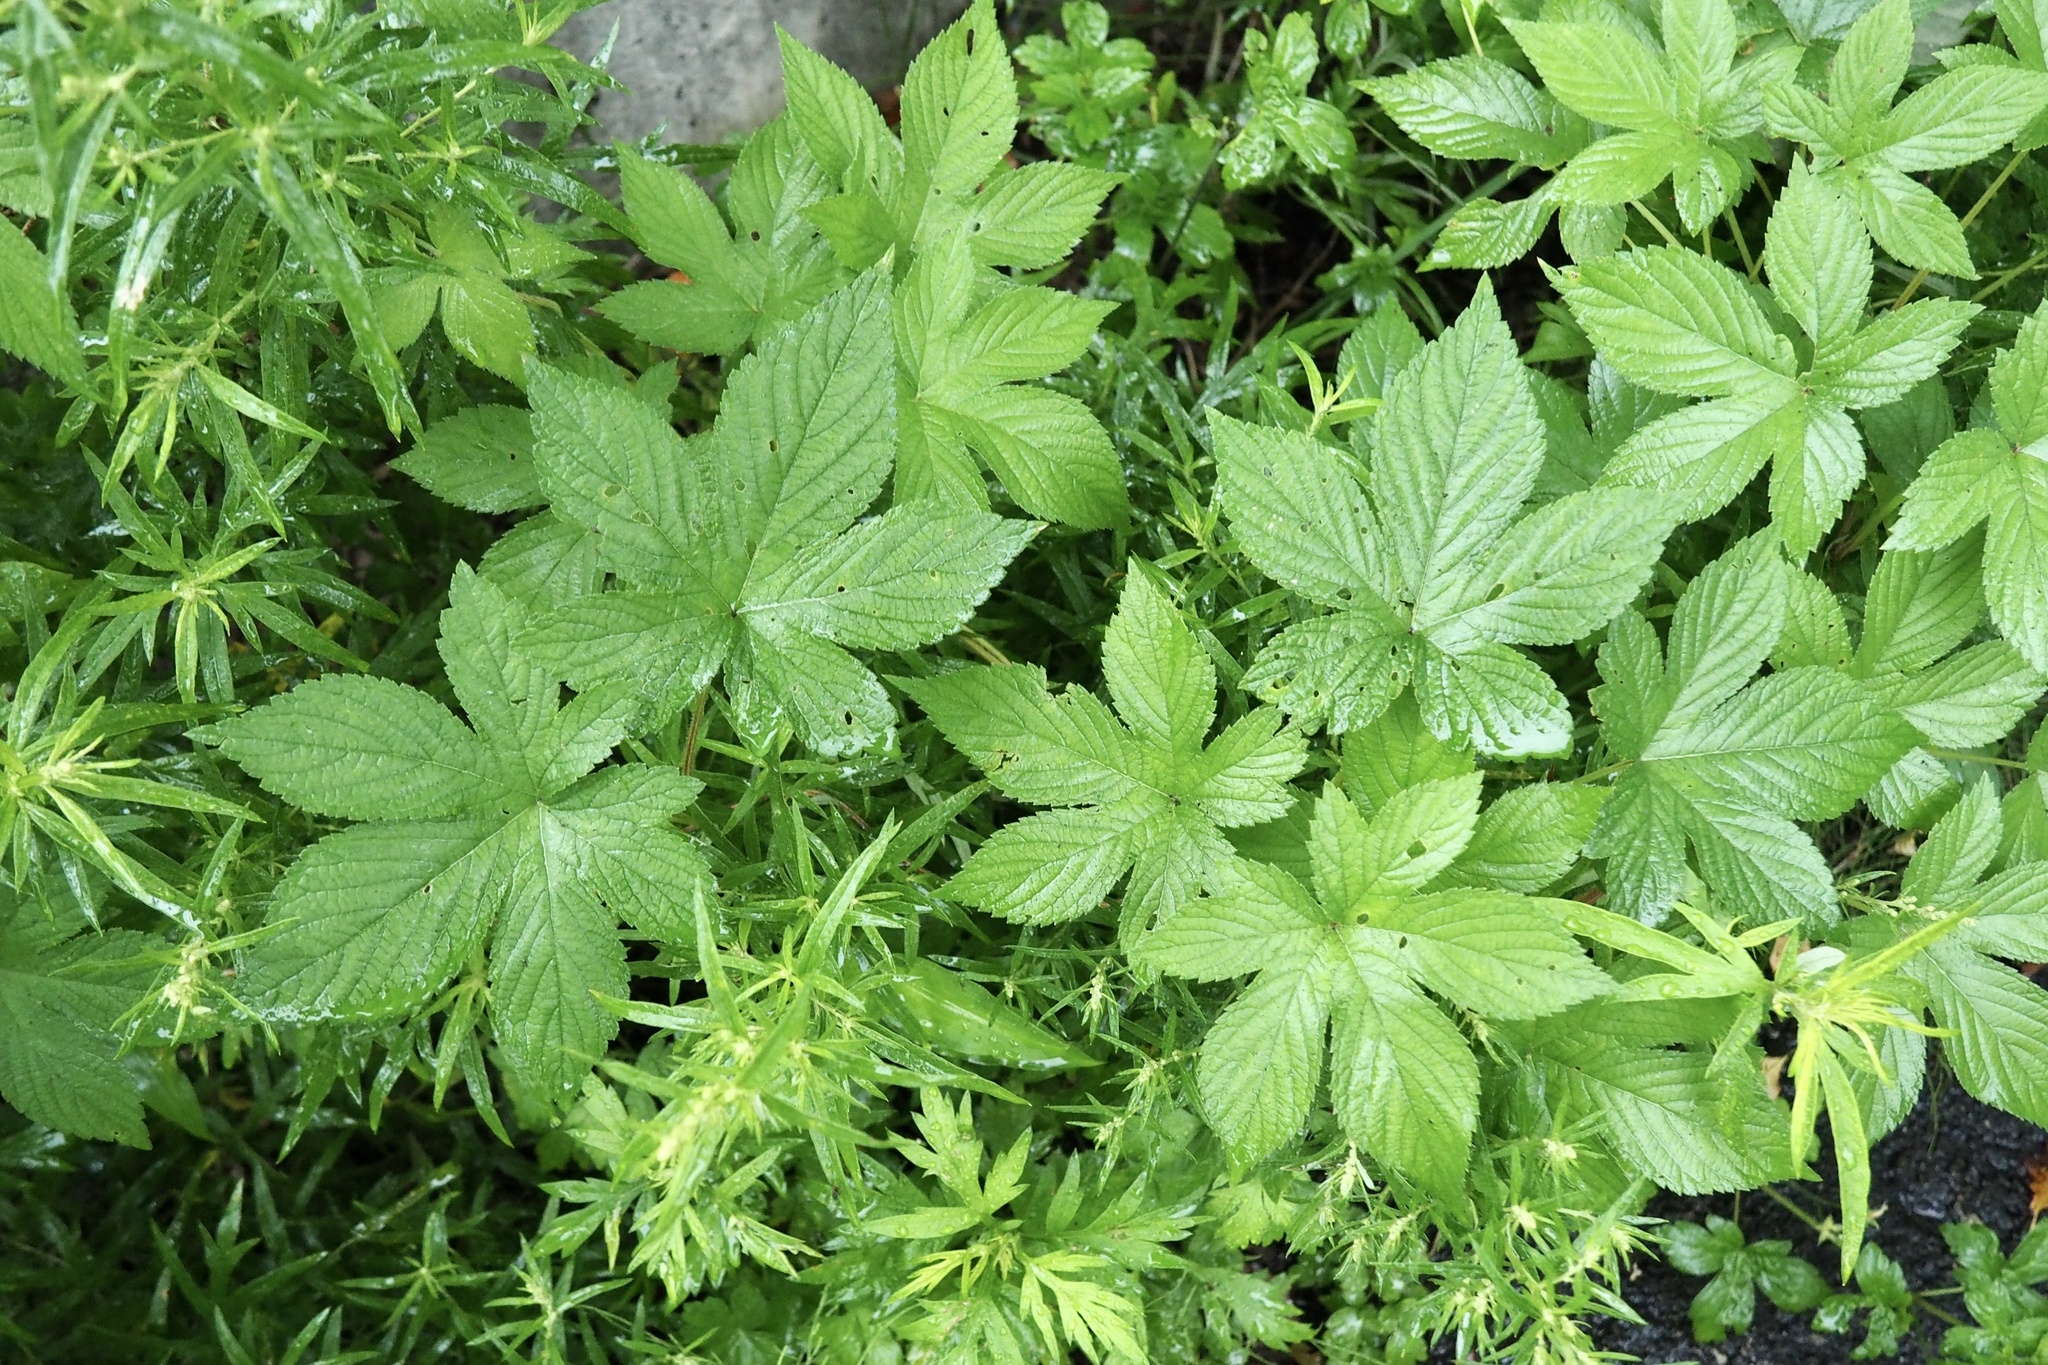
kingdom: Plantae
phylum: Tracheophyta
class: Magnoliopsida
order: Rosales
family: Cannabaceae
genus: Humulus
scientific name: Humulus scandens
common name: Japanese hop
